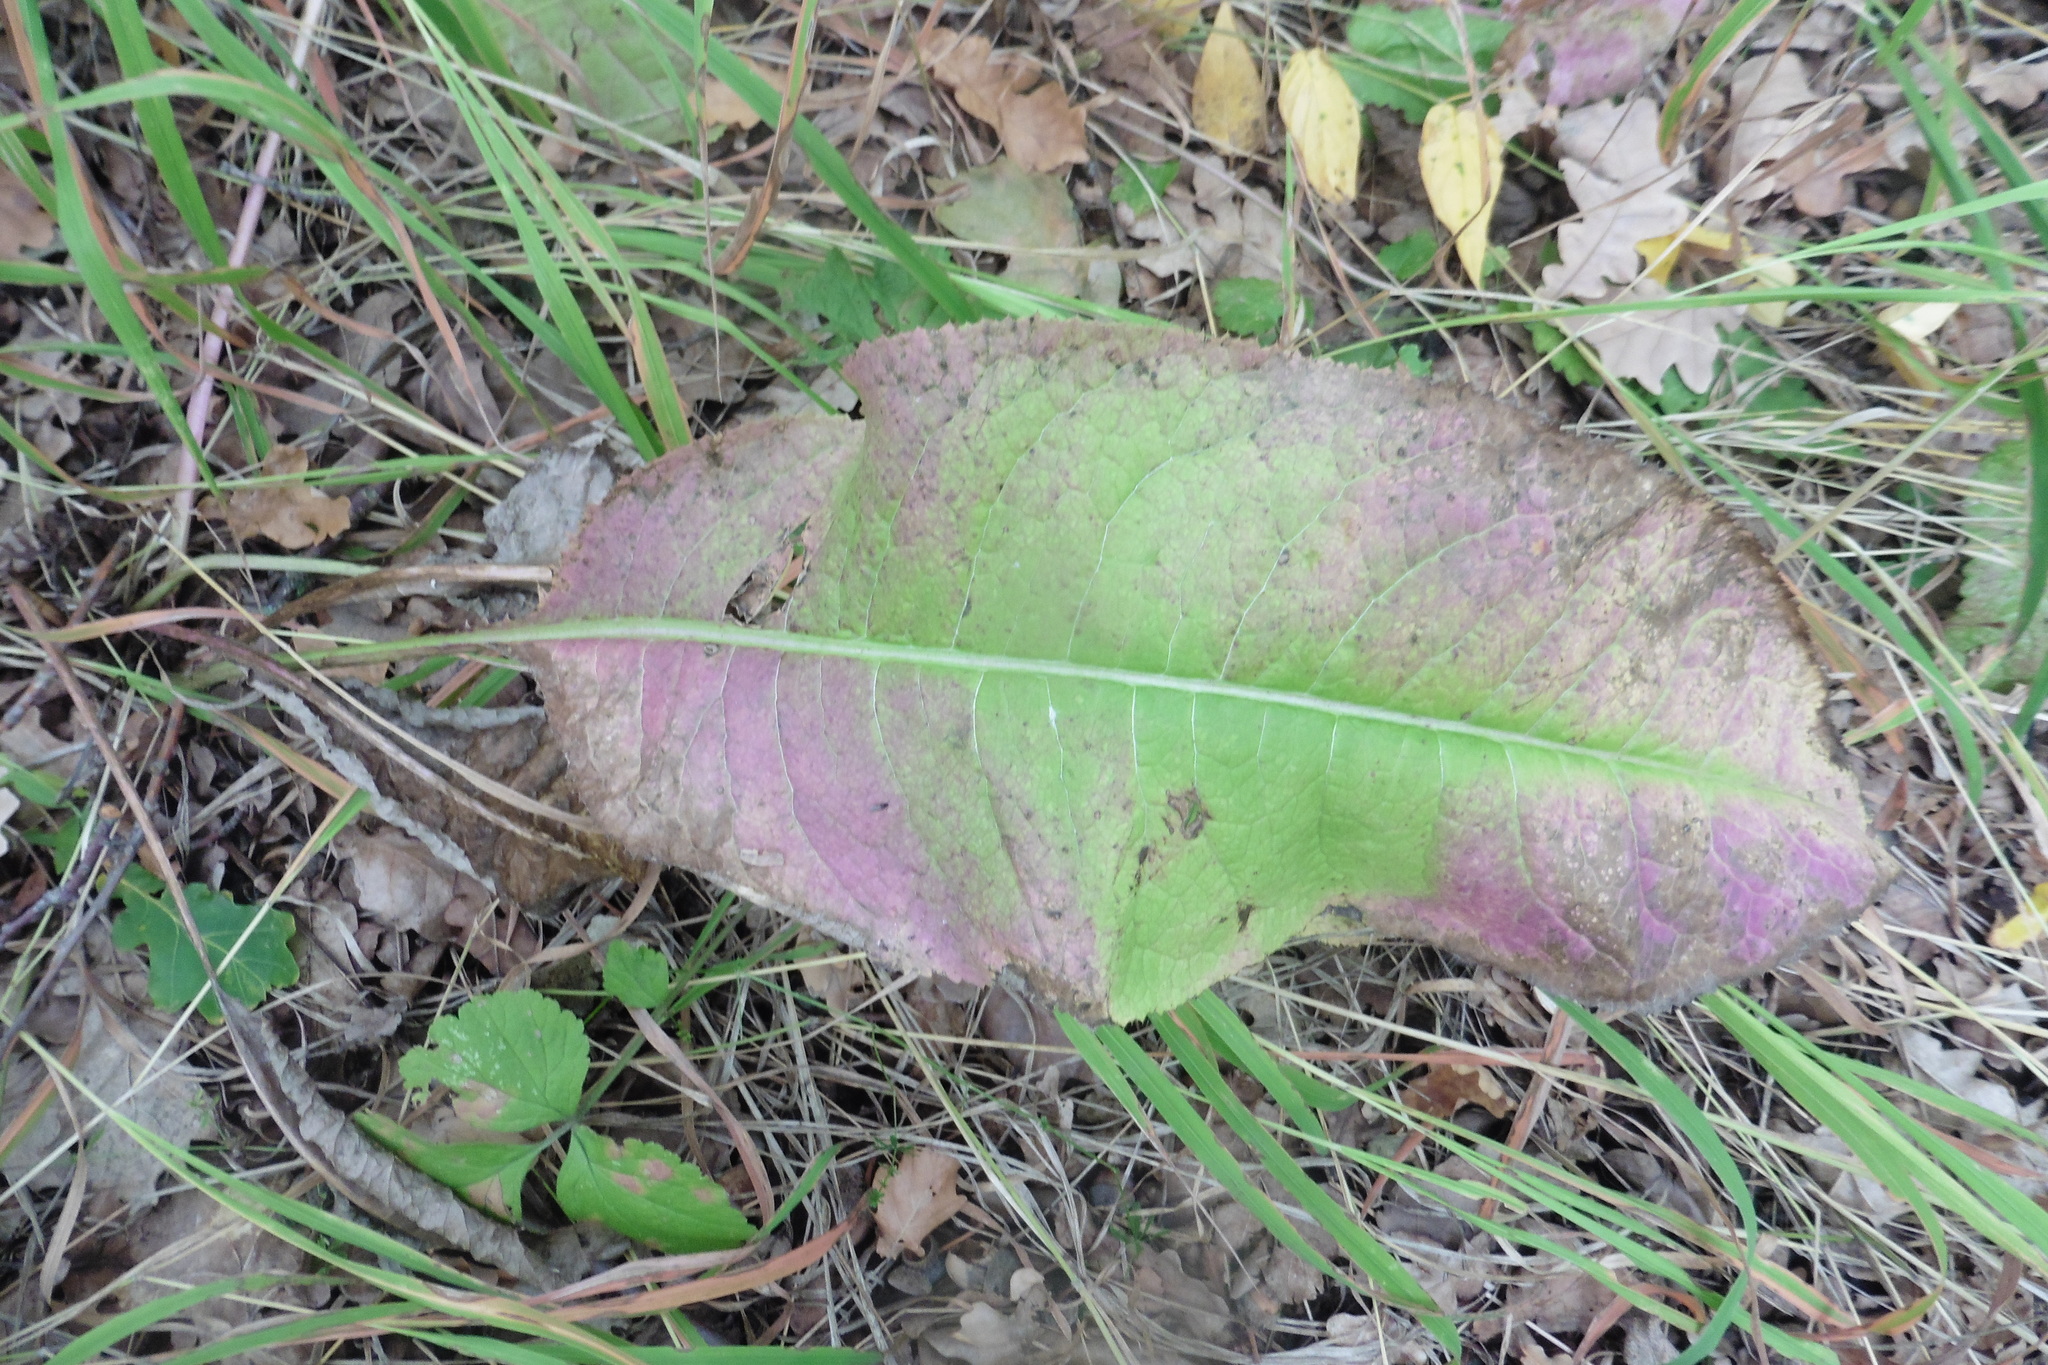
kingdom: Plantae
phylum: Tracheophyta
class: Magnoliopsida
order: Asterales
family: Asteraceae
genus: Serratula
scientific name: Serratula tinctoria
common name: Saw-wort
